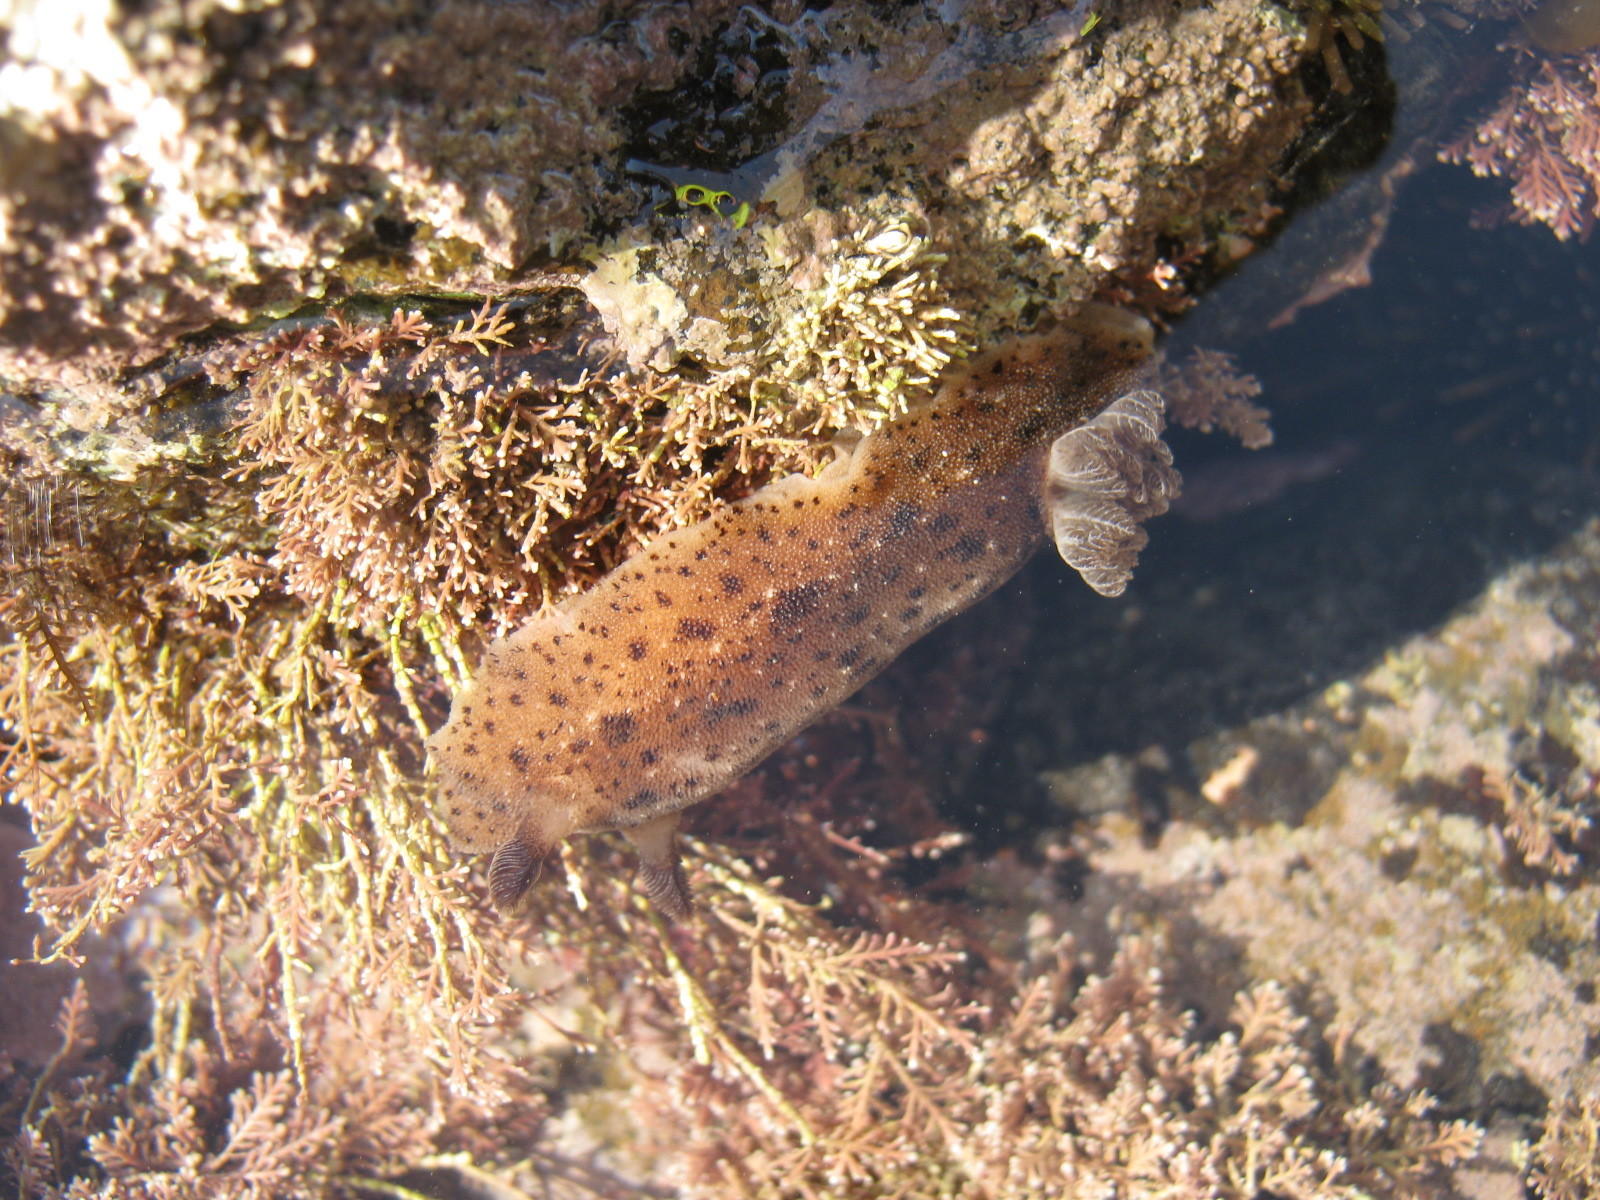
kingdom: Animalia
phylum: Mollusca
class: Gastropoda
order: Nudibranchia
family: Discodorididae
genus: Alloiodoris
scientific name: Alloiodoris lanuginata
